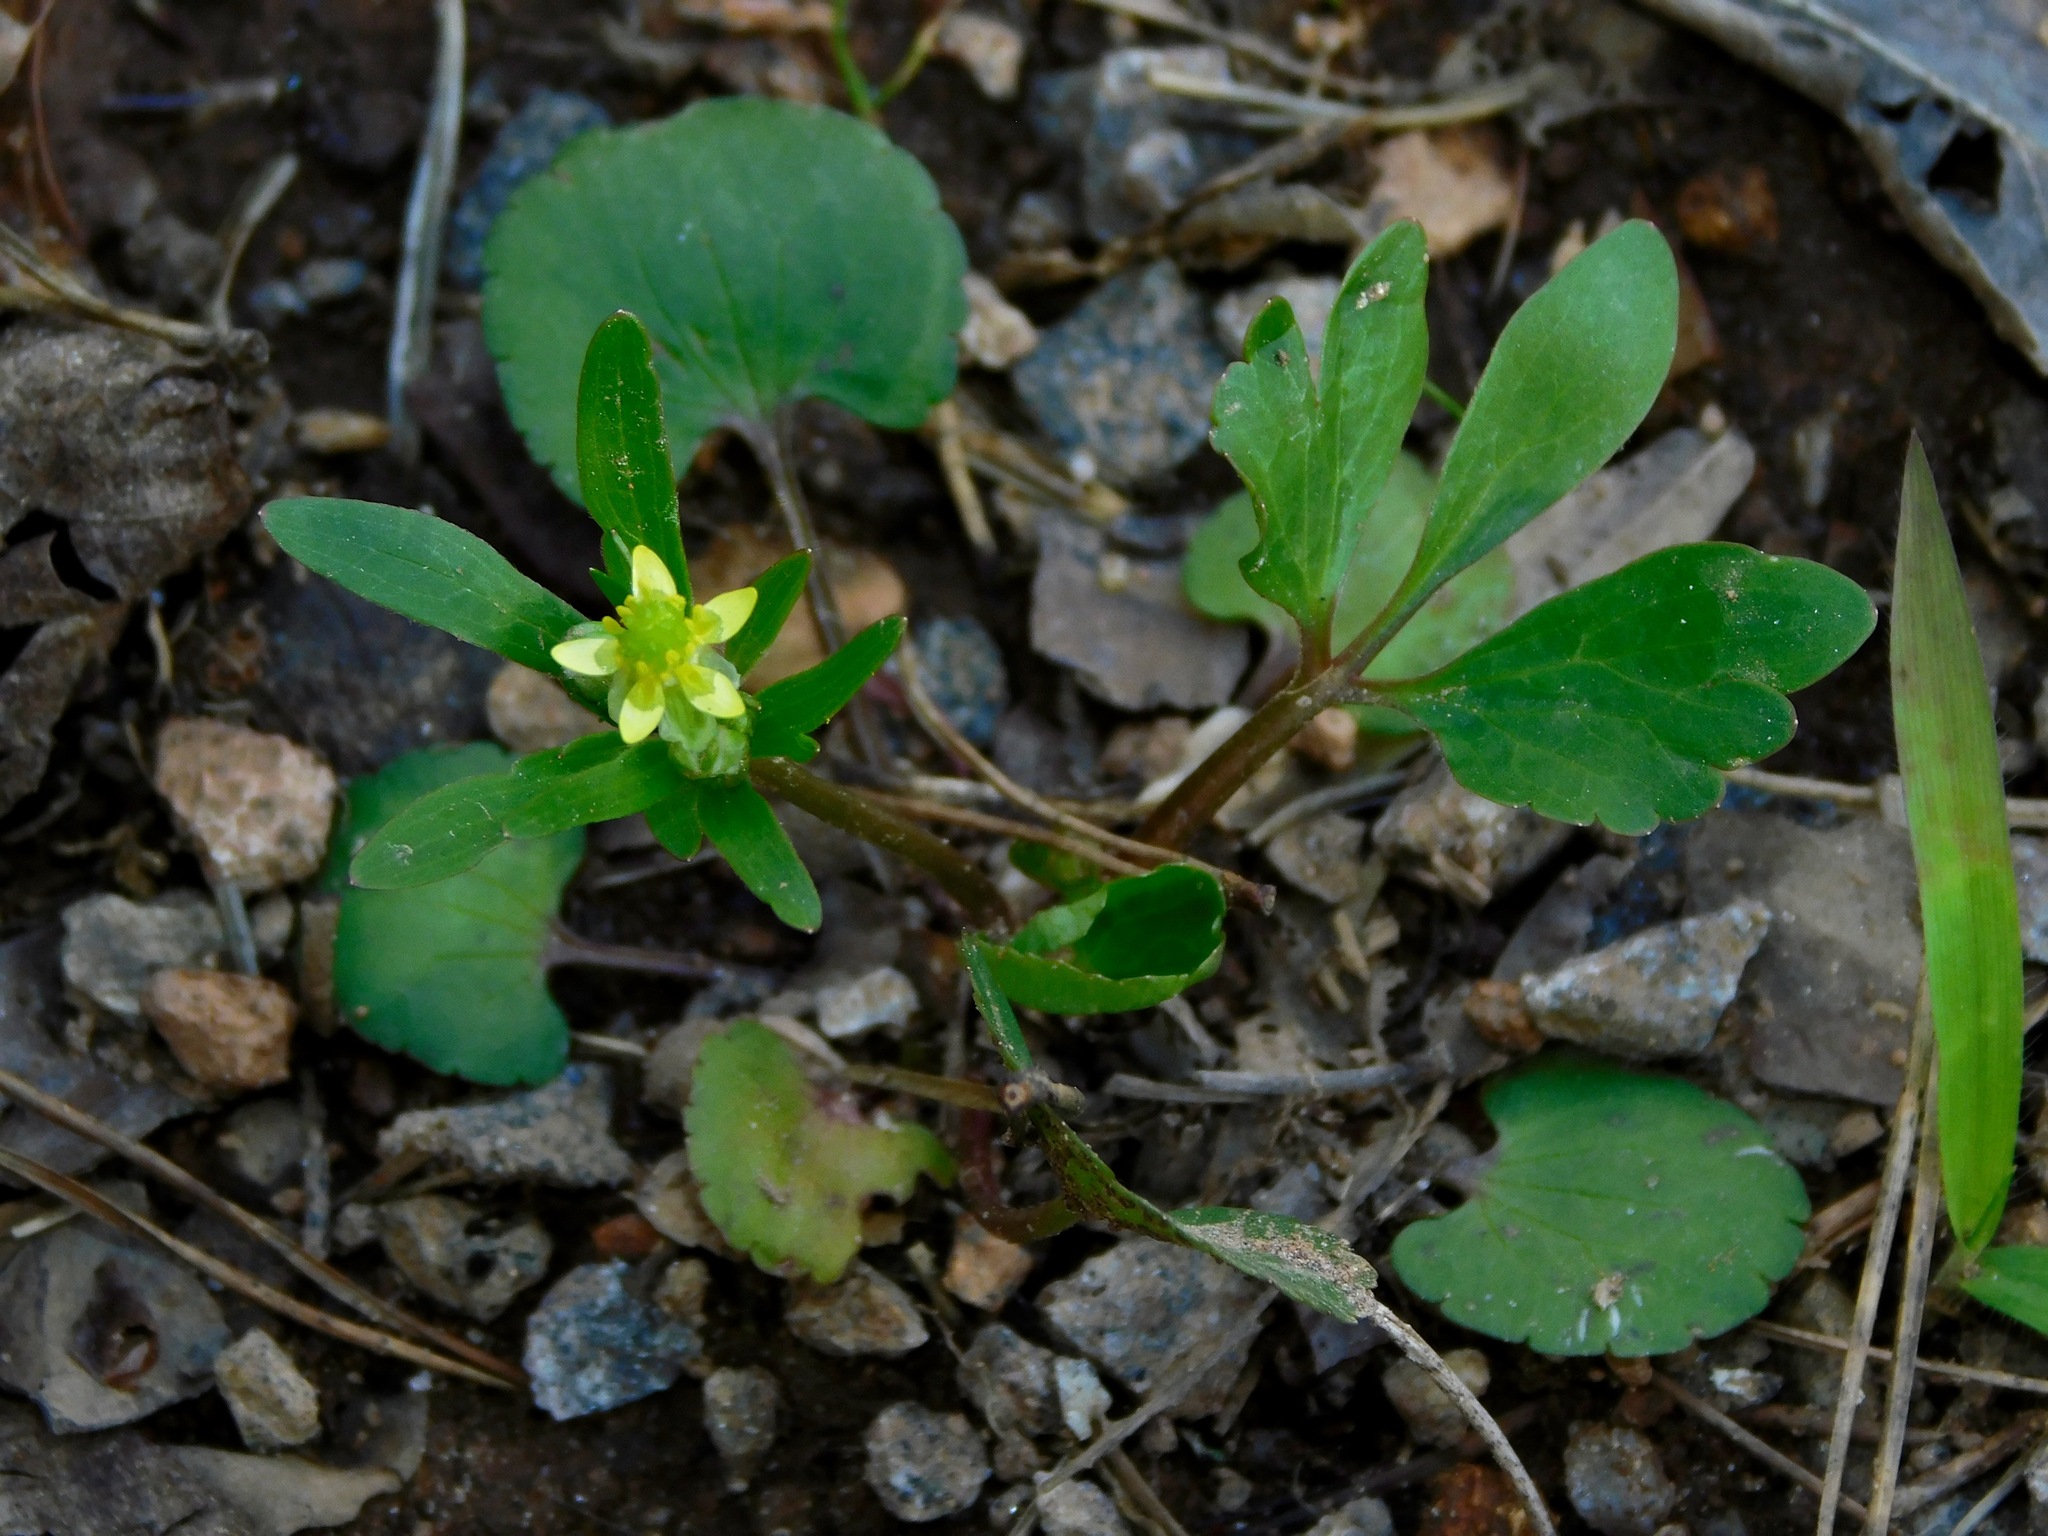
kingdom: Plantae
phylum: Tracheophyta
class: Magnoliopsida
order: Ranunculales
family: Ranunculaceae
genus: Ranunculus
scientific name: Ranunculus abortivus
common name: Early wood buttercup
